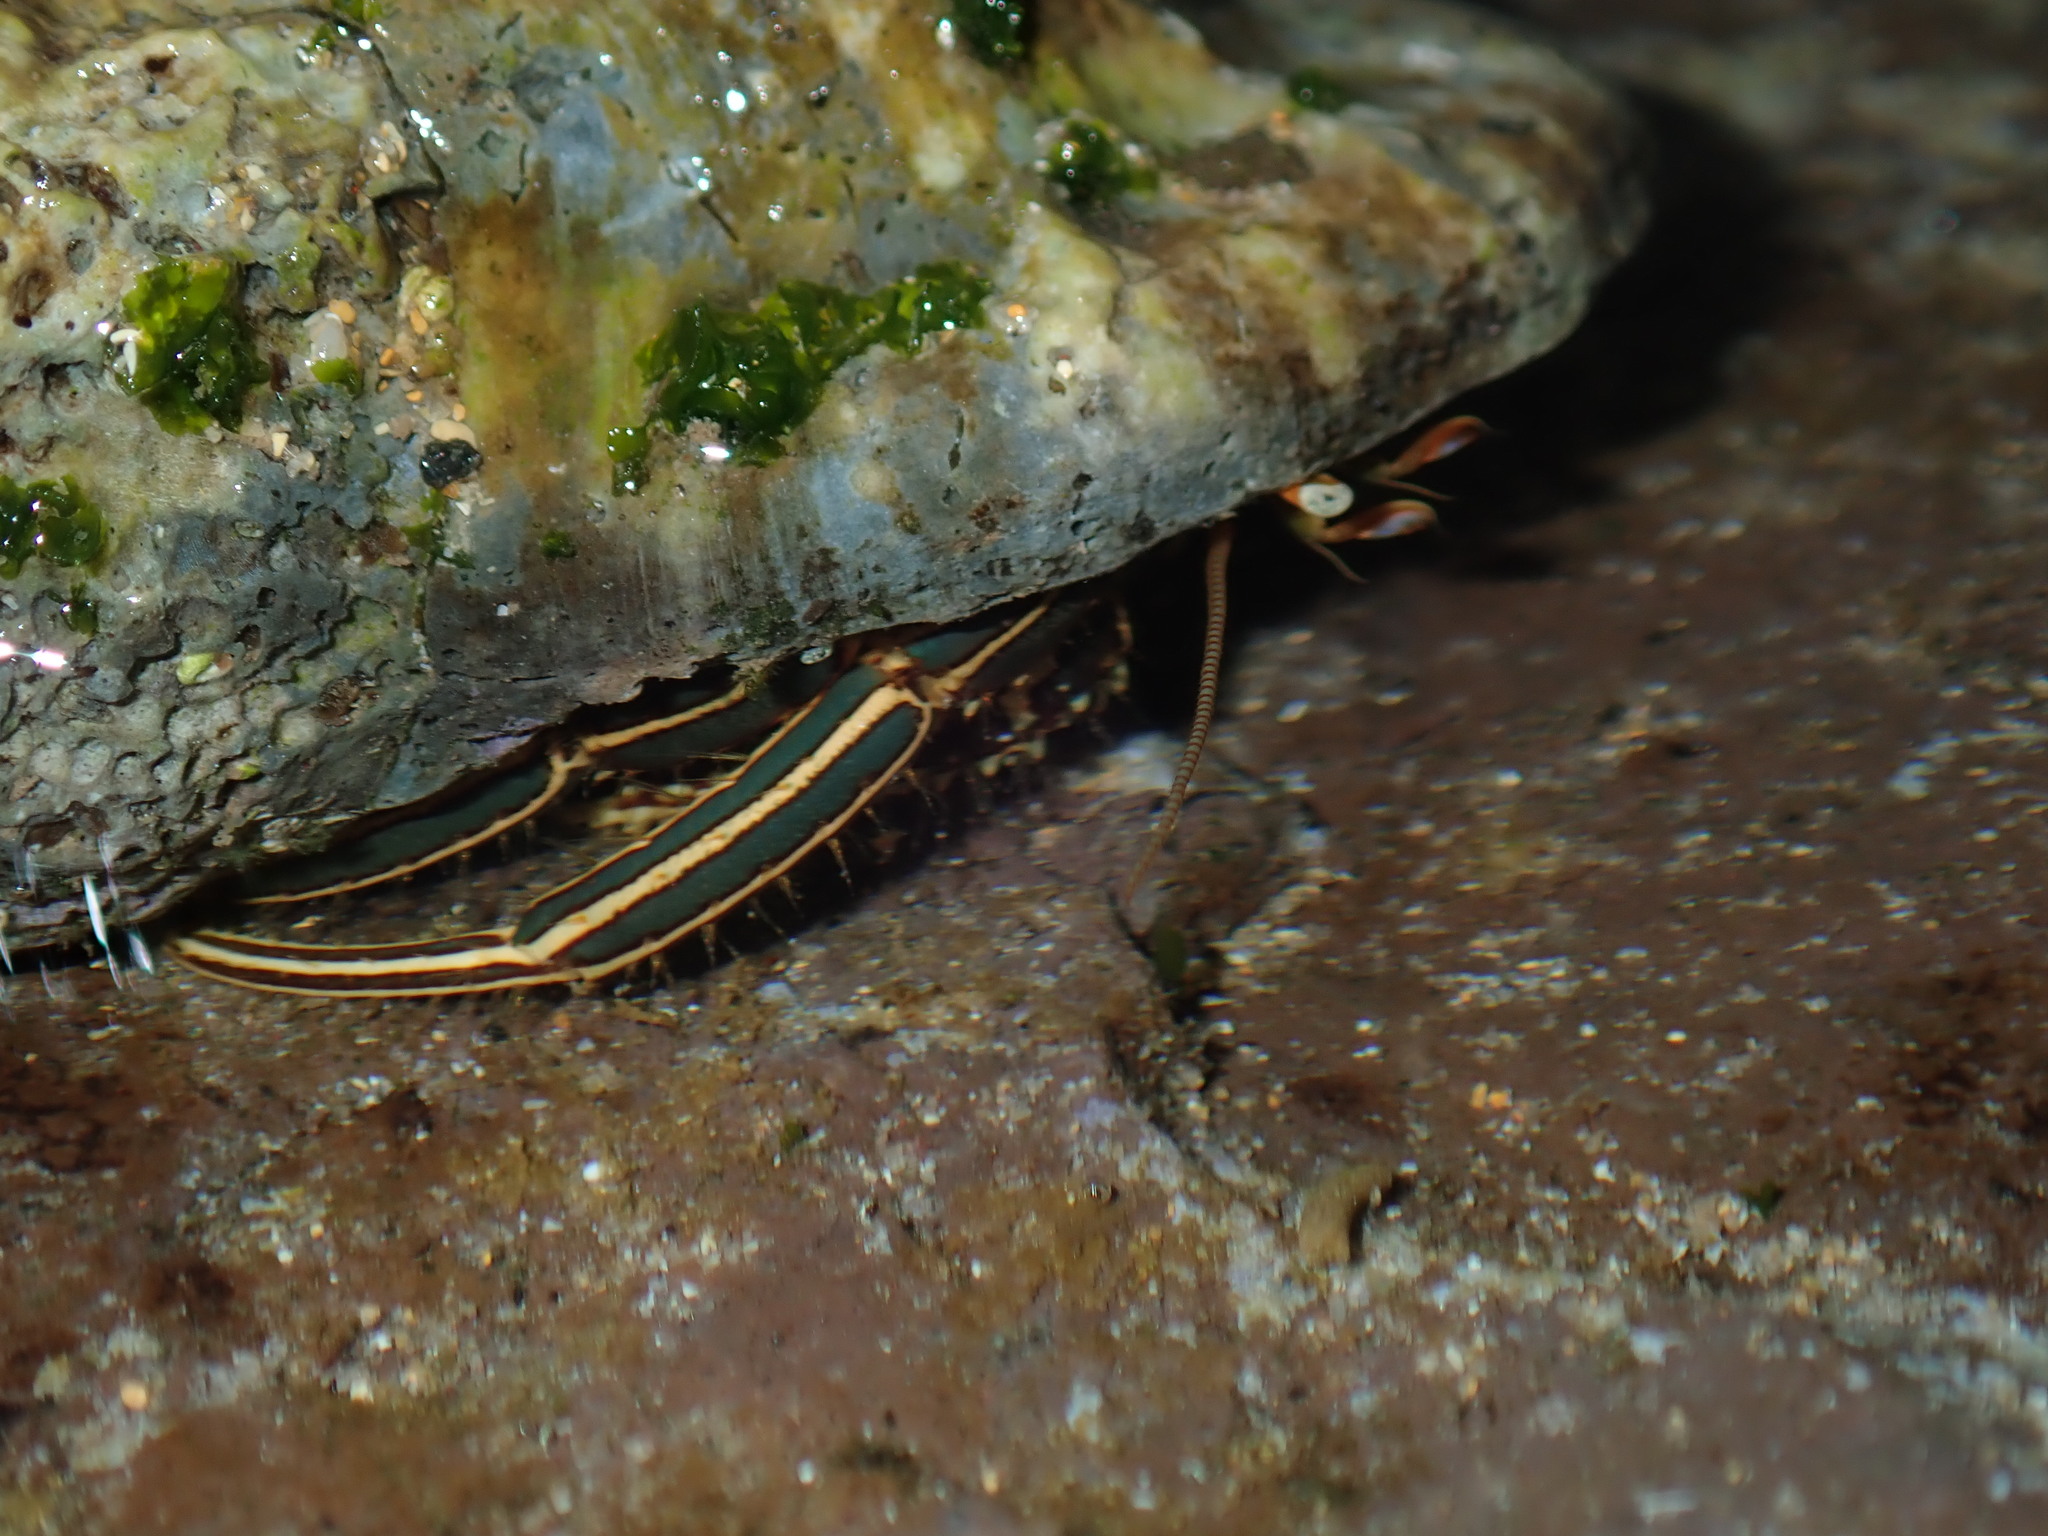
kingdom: Animalia
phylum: Arthropoda
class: Malacostraca
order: Decapoda
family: Diogenidae
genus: Clibanarius
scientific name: Clibanarius taeniatus
